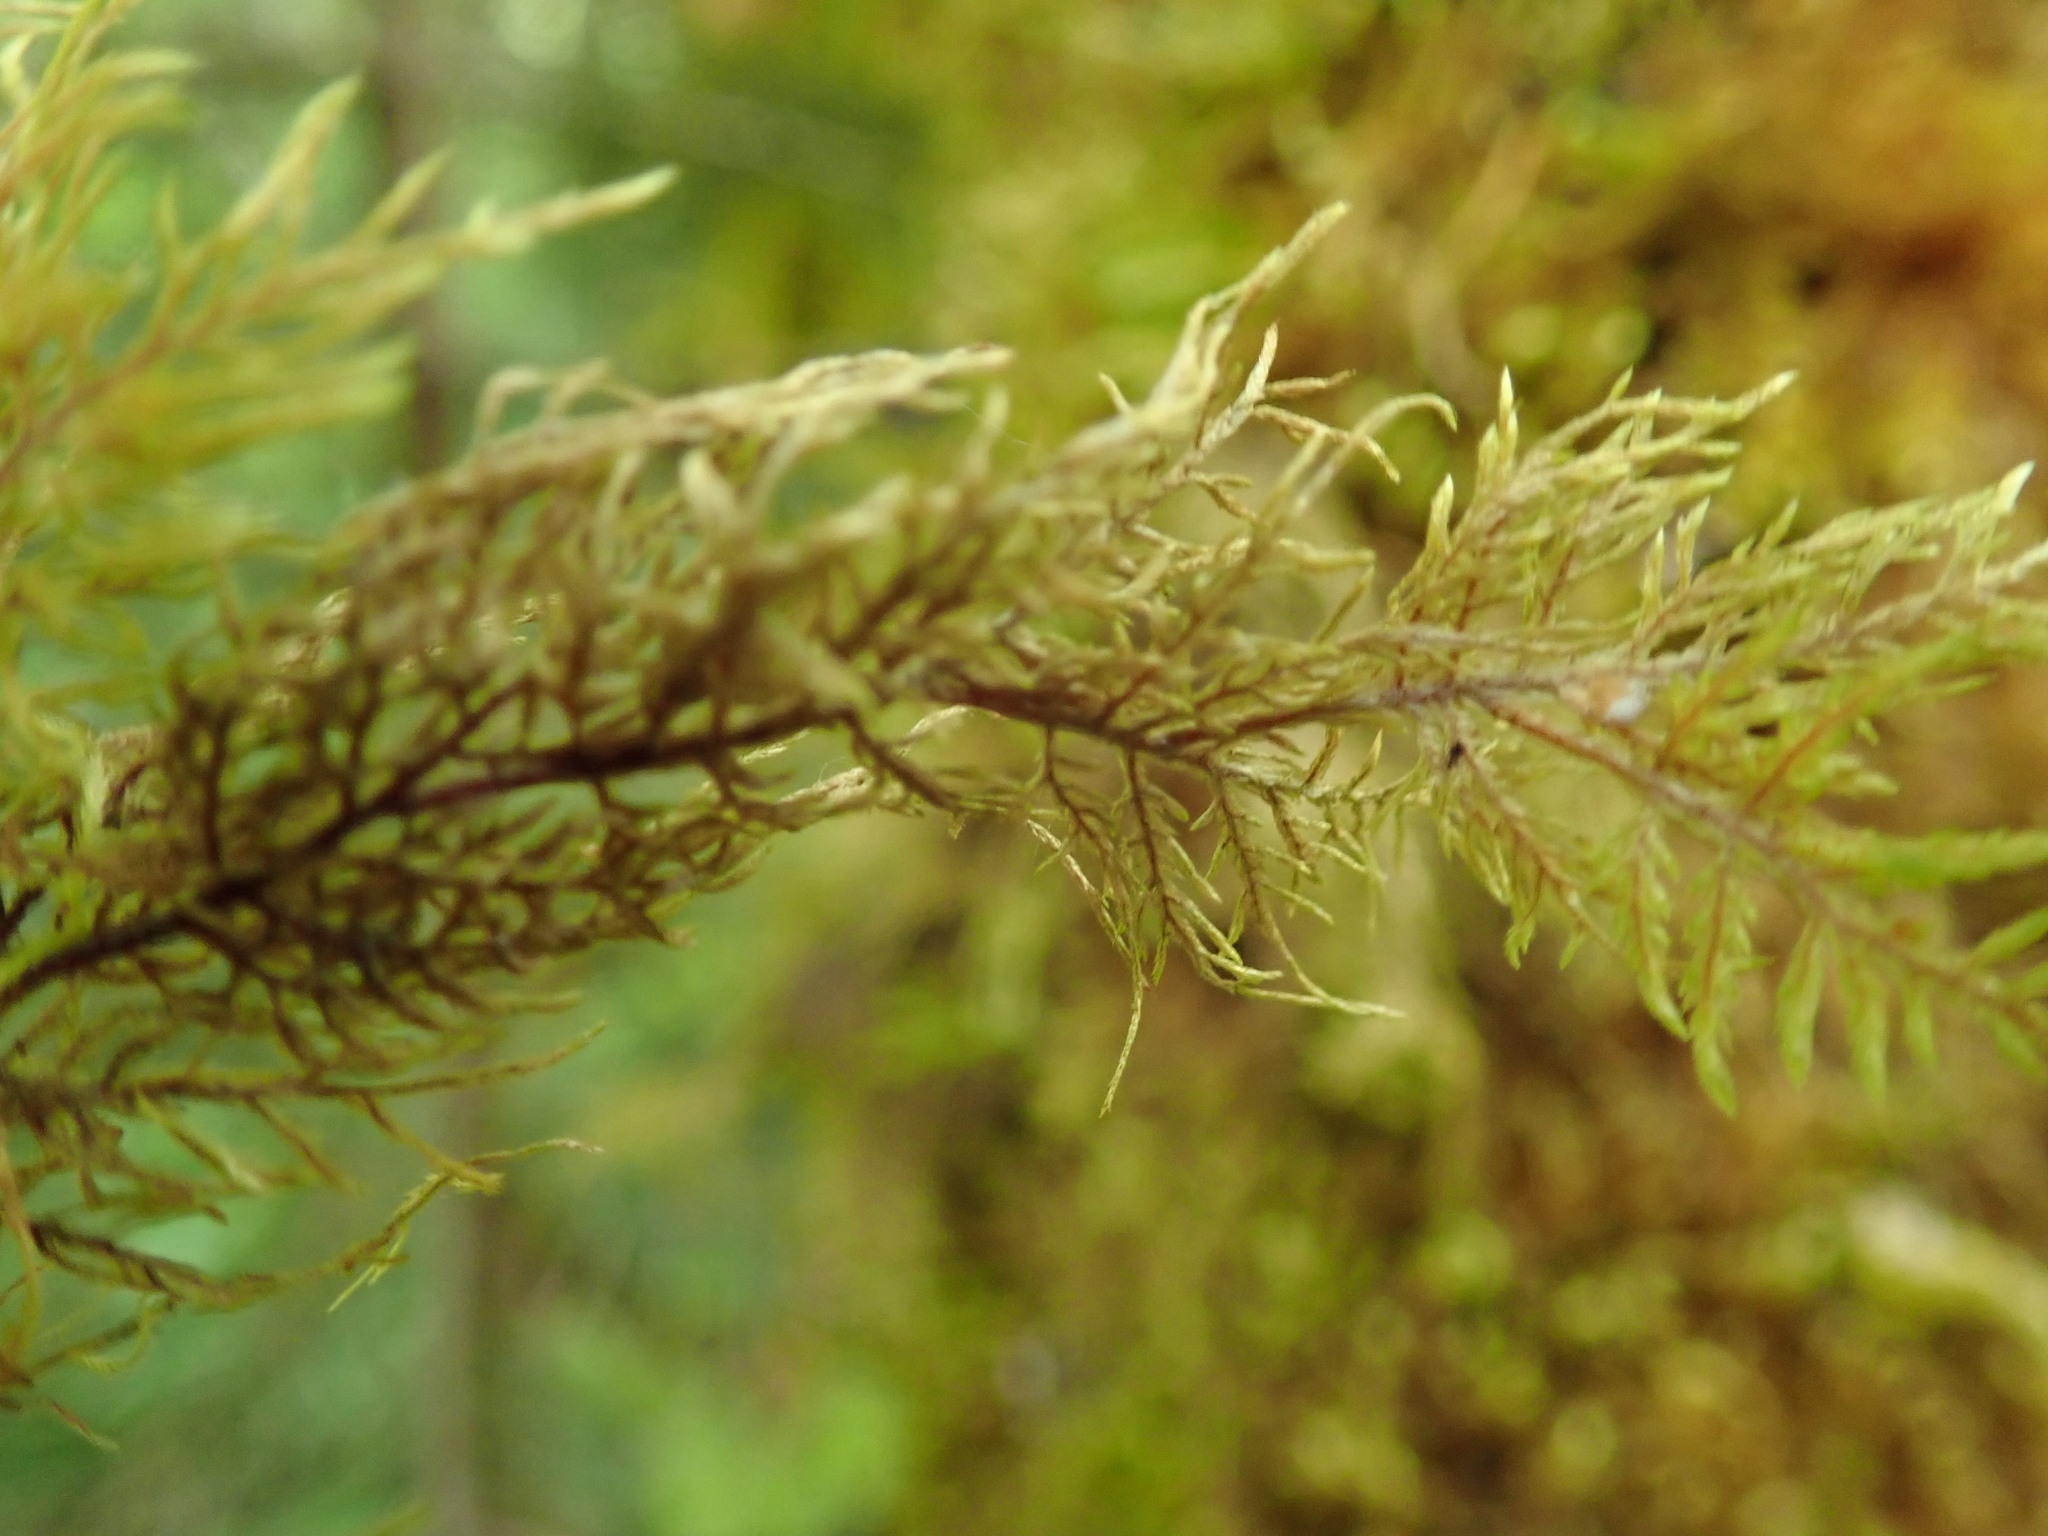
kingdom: Plantae
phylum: Bryophyta
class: Bryopsida
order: Hypnales
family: Hylocomiaceae
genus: Hylocomium
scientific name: Hylocomium splendens
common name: Stairstep moss
